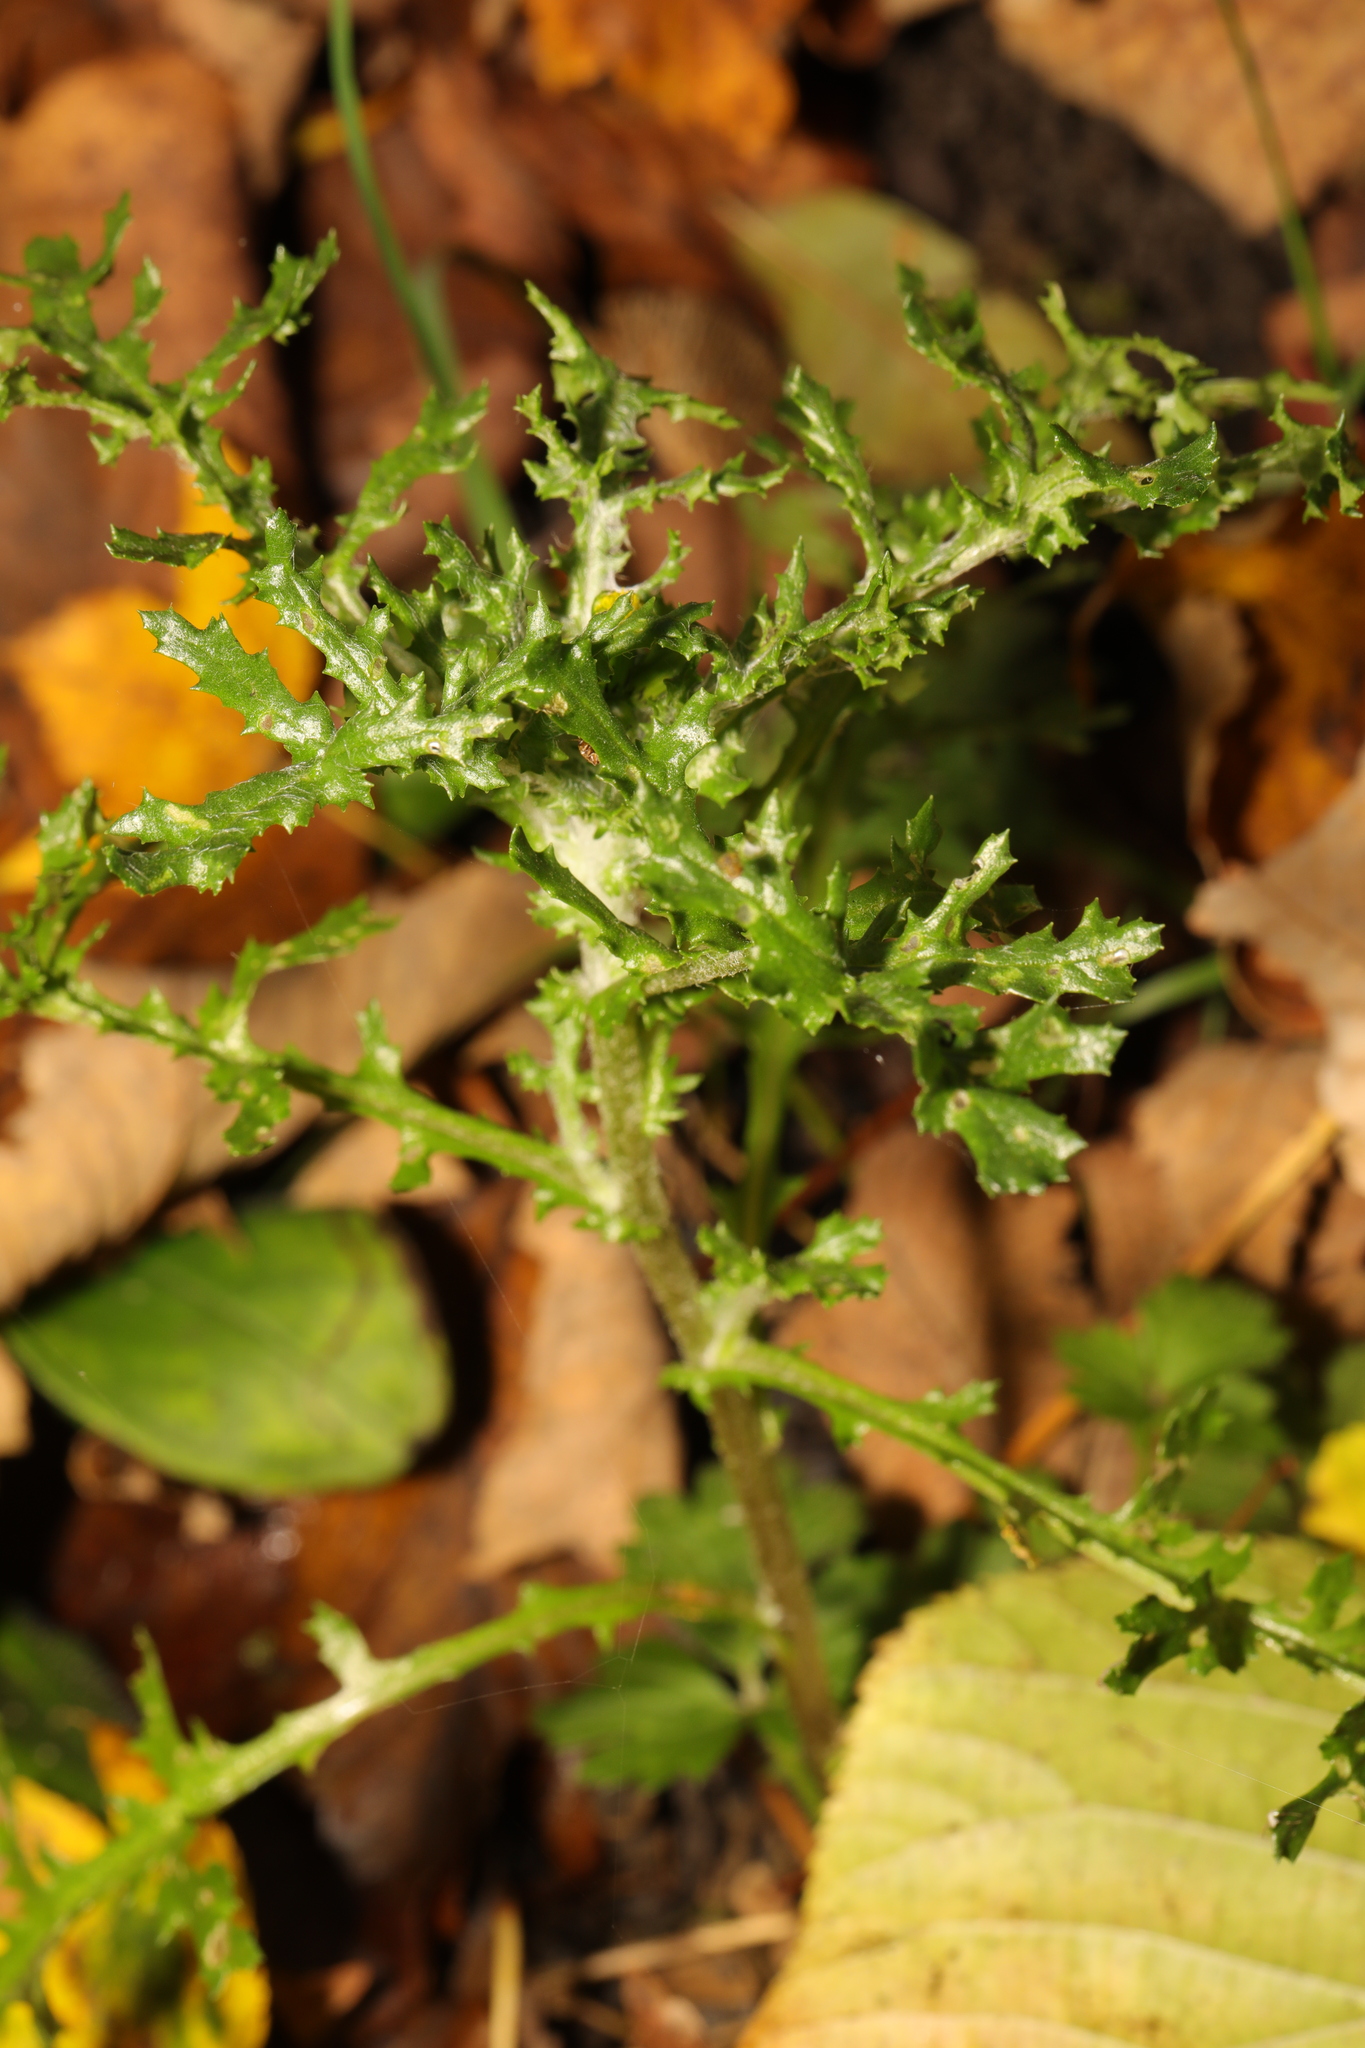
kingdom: Plantae
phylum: Tracheophyta
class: Magnoliopsida
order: Asterales
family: Asteraceae
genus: Senecio
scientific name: Senecio vulgaris
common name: Old-man-in-the-spring
